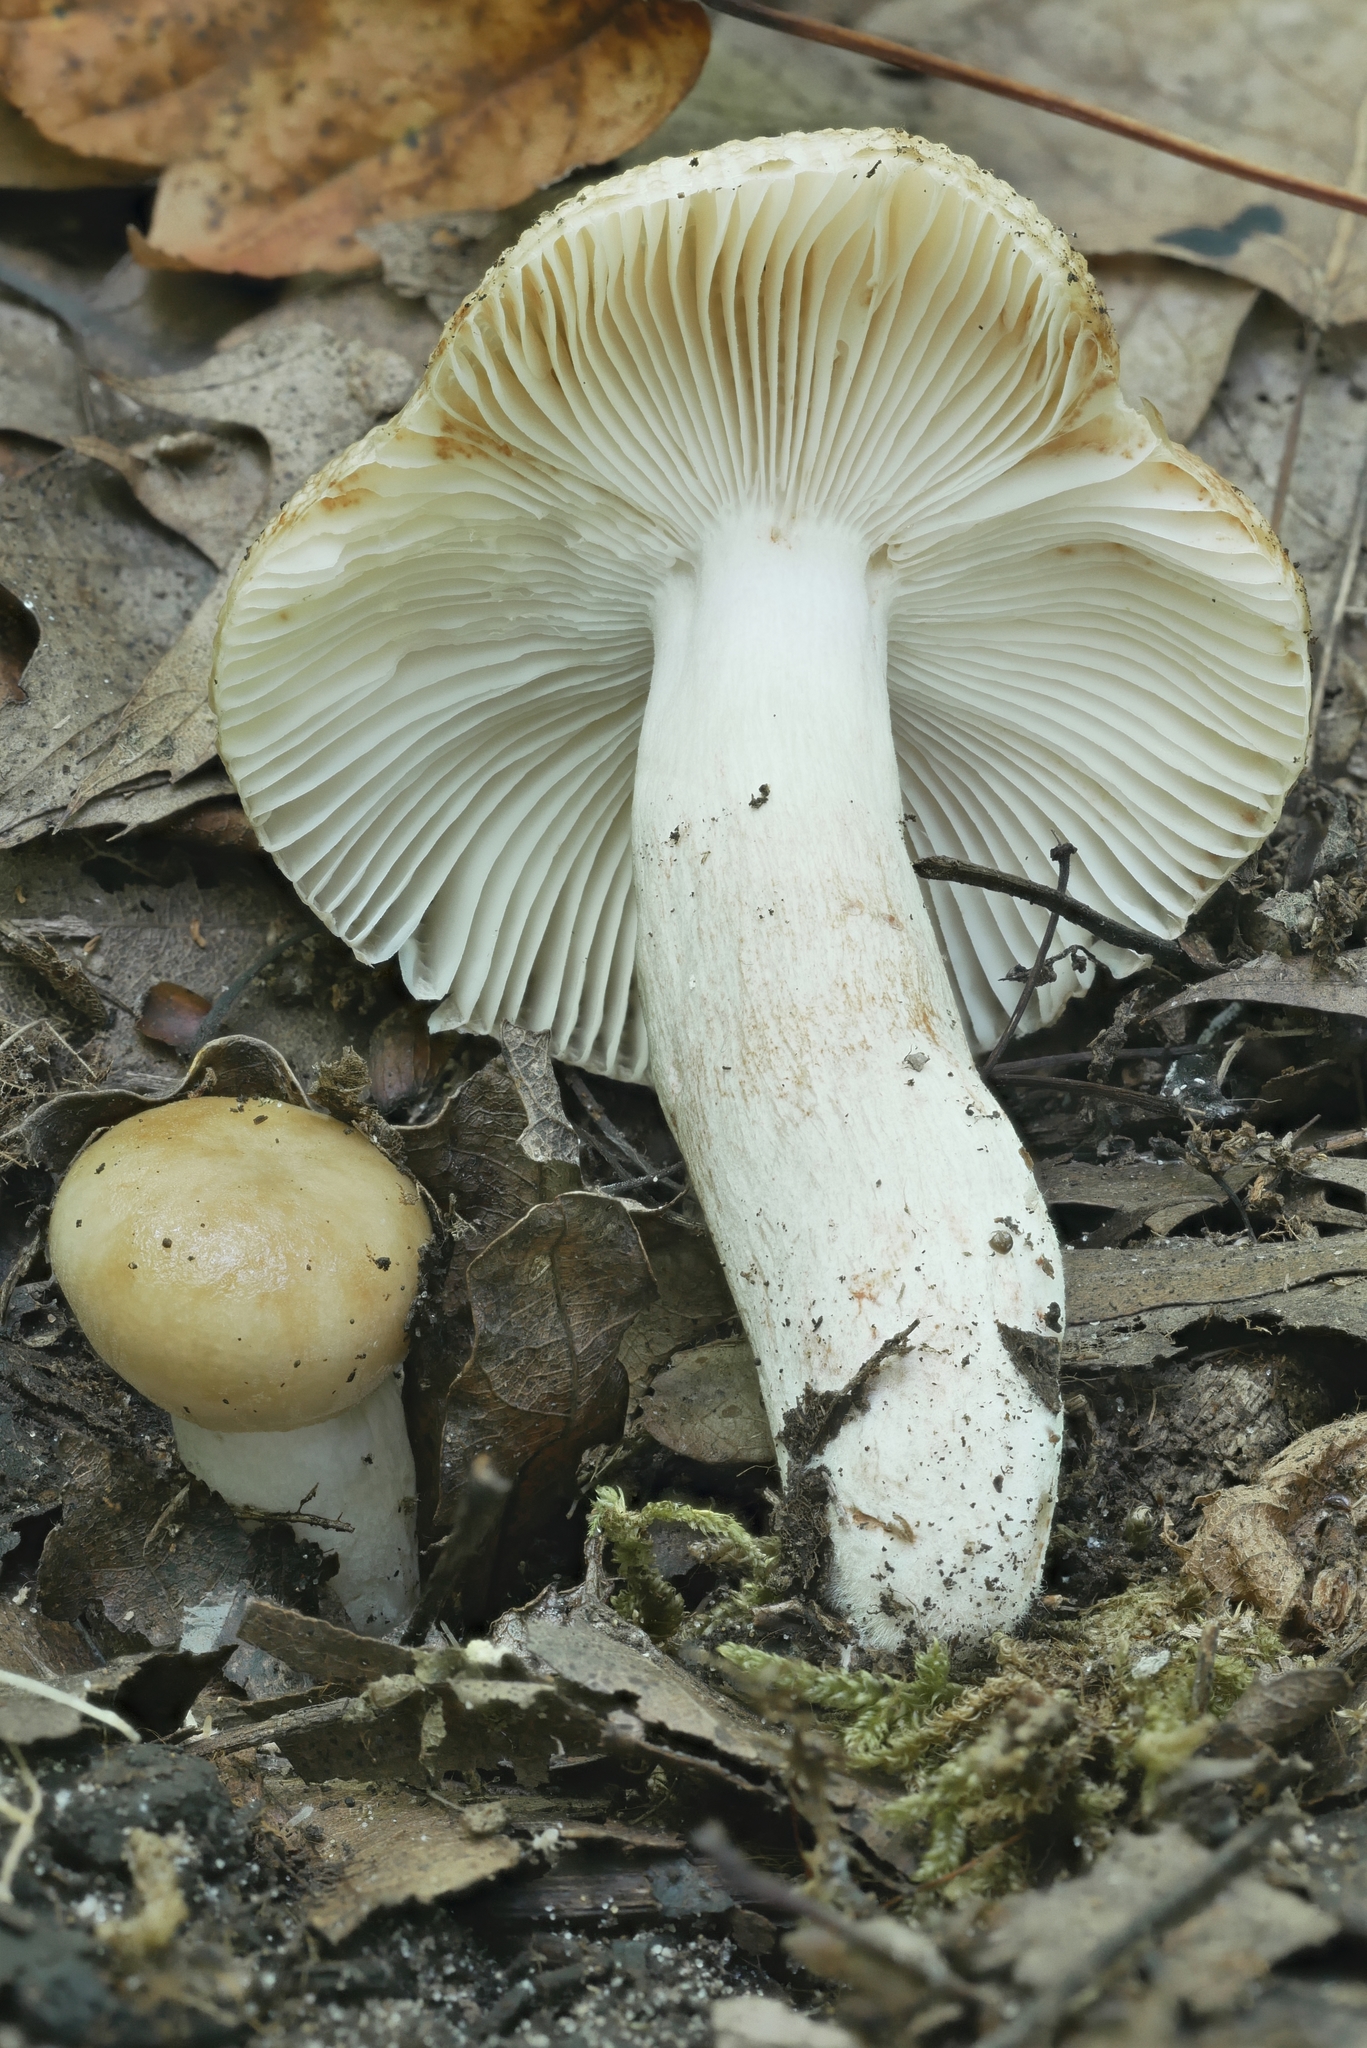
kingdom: Fungi
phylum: Basidiomycota
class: Agaricomycetes
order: Russulales
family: Russulaceae
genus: Russula
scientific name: Russula amerorecondita
